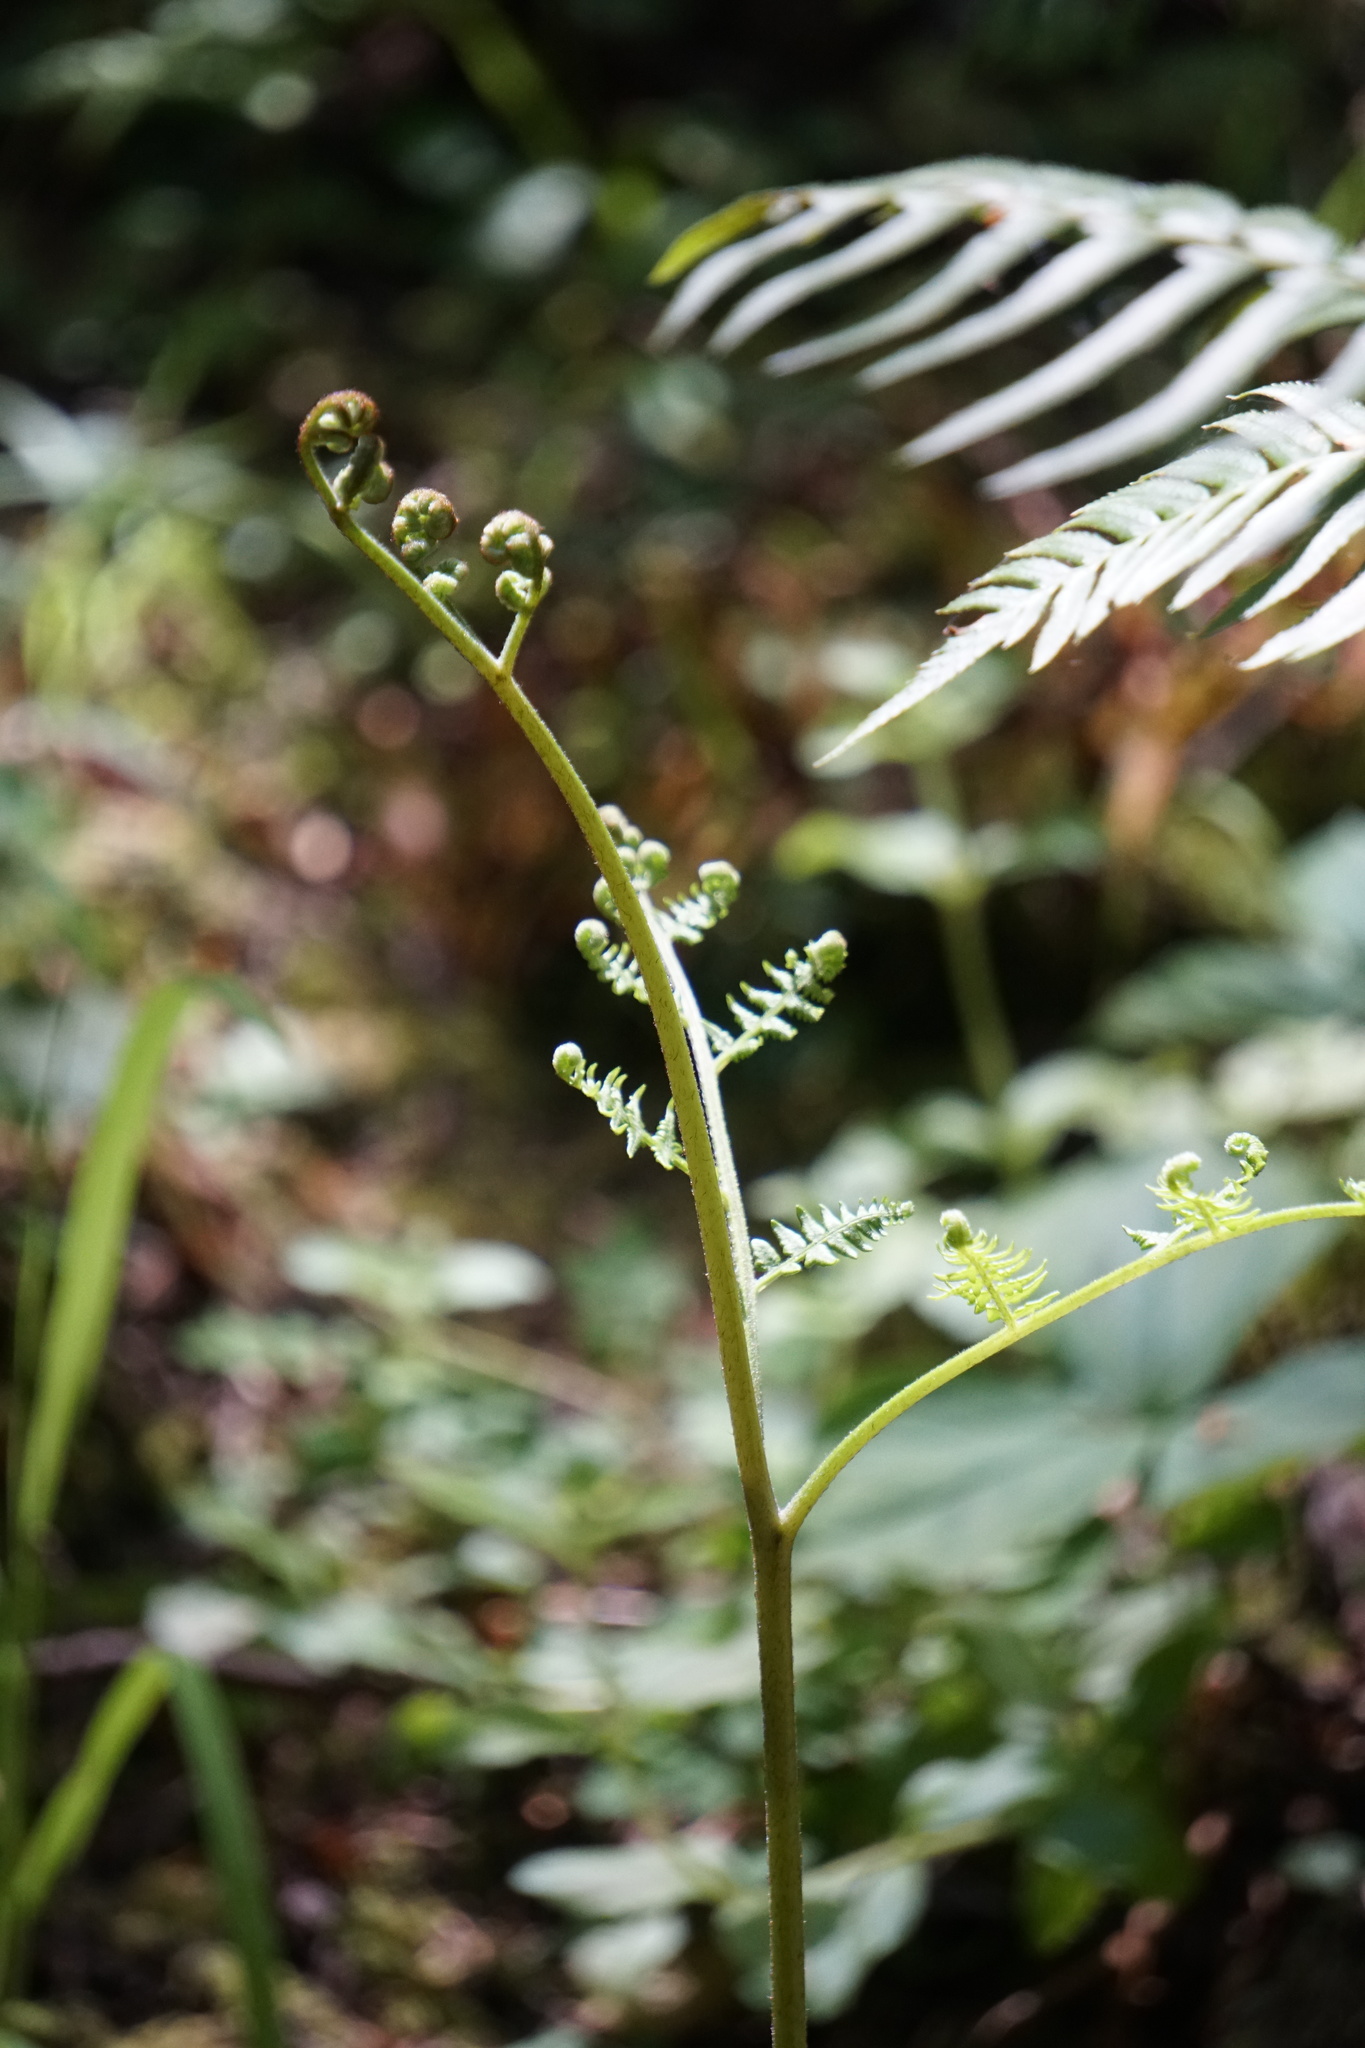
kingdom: Plantae
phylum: Tracheophyta
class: Polypodiopsida
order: Polypodiales
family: Dennstaedtiaceae
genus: Pteridium
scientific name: Pteridium aquilinum
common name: Bracken
